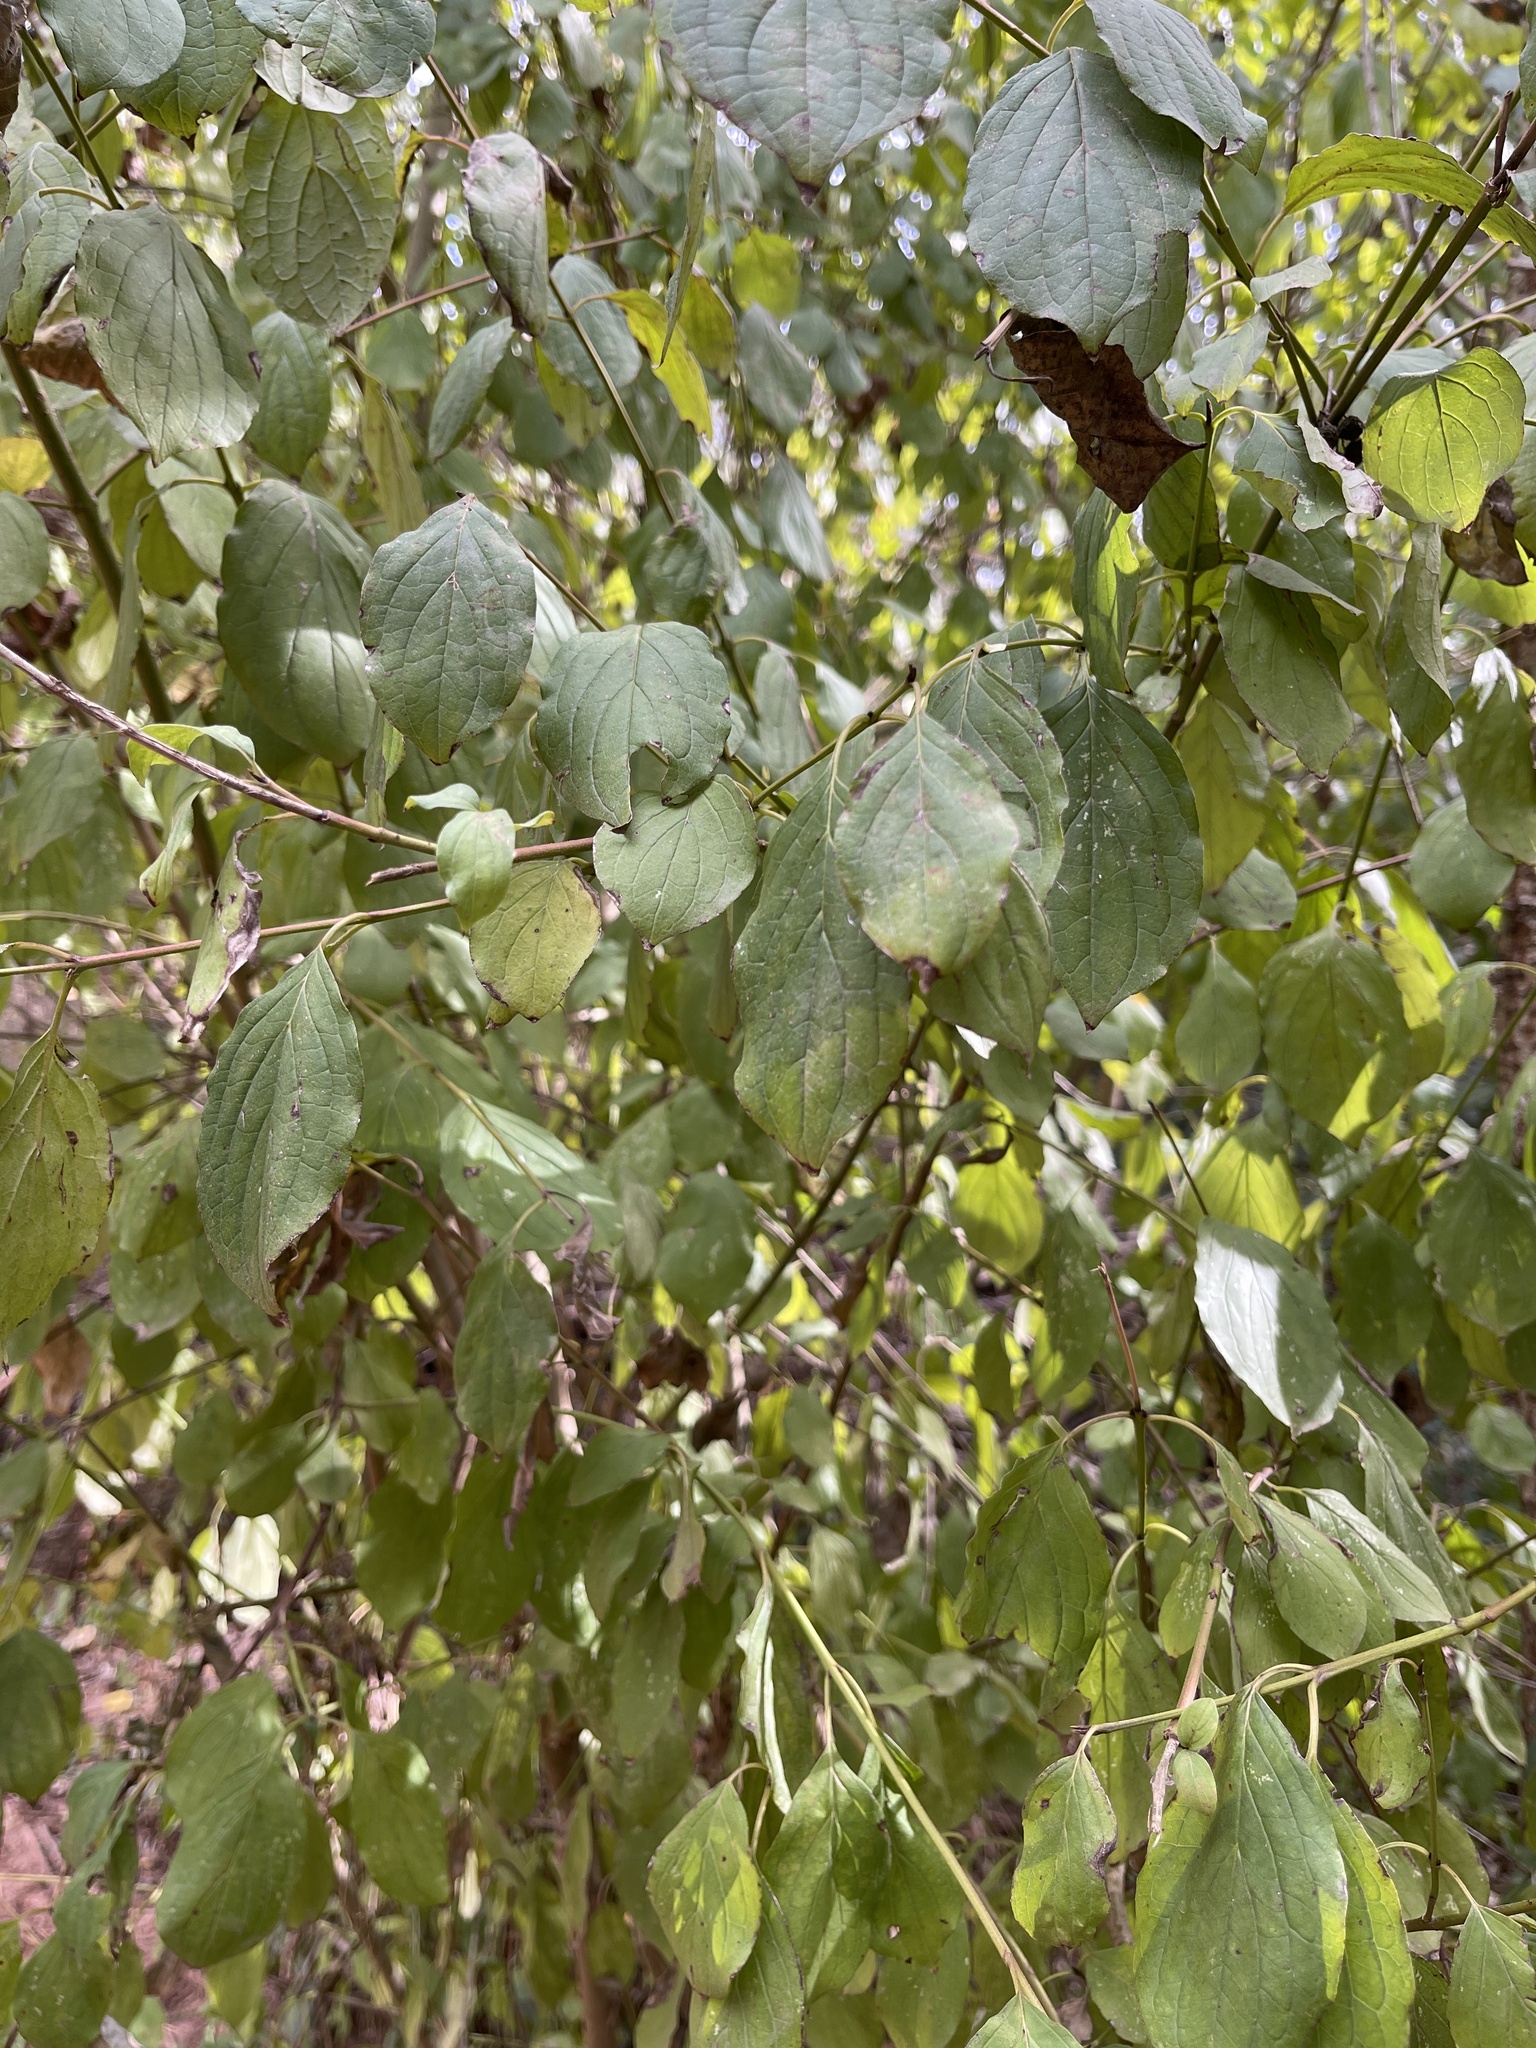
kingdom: Plantae
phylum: Tracheophyta
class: Magnoliopsida
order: Cornales
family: Cornaceae
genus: Cornus
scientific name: Cornus sanguinea
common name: Dogwood
